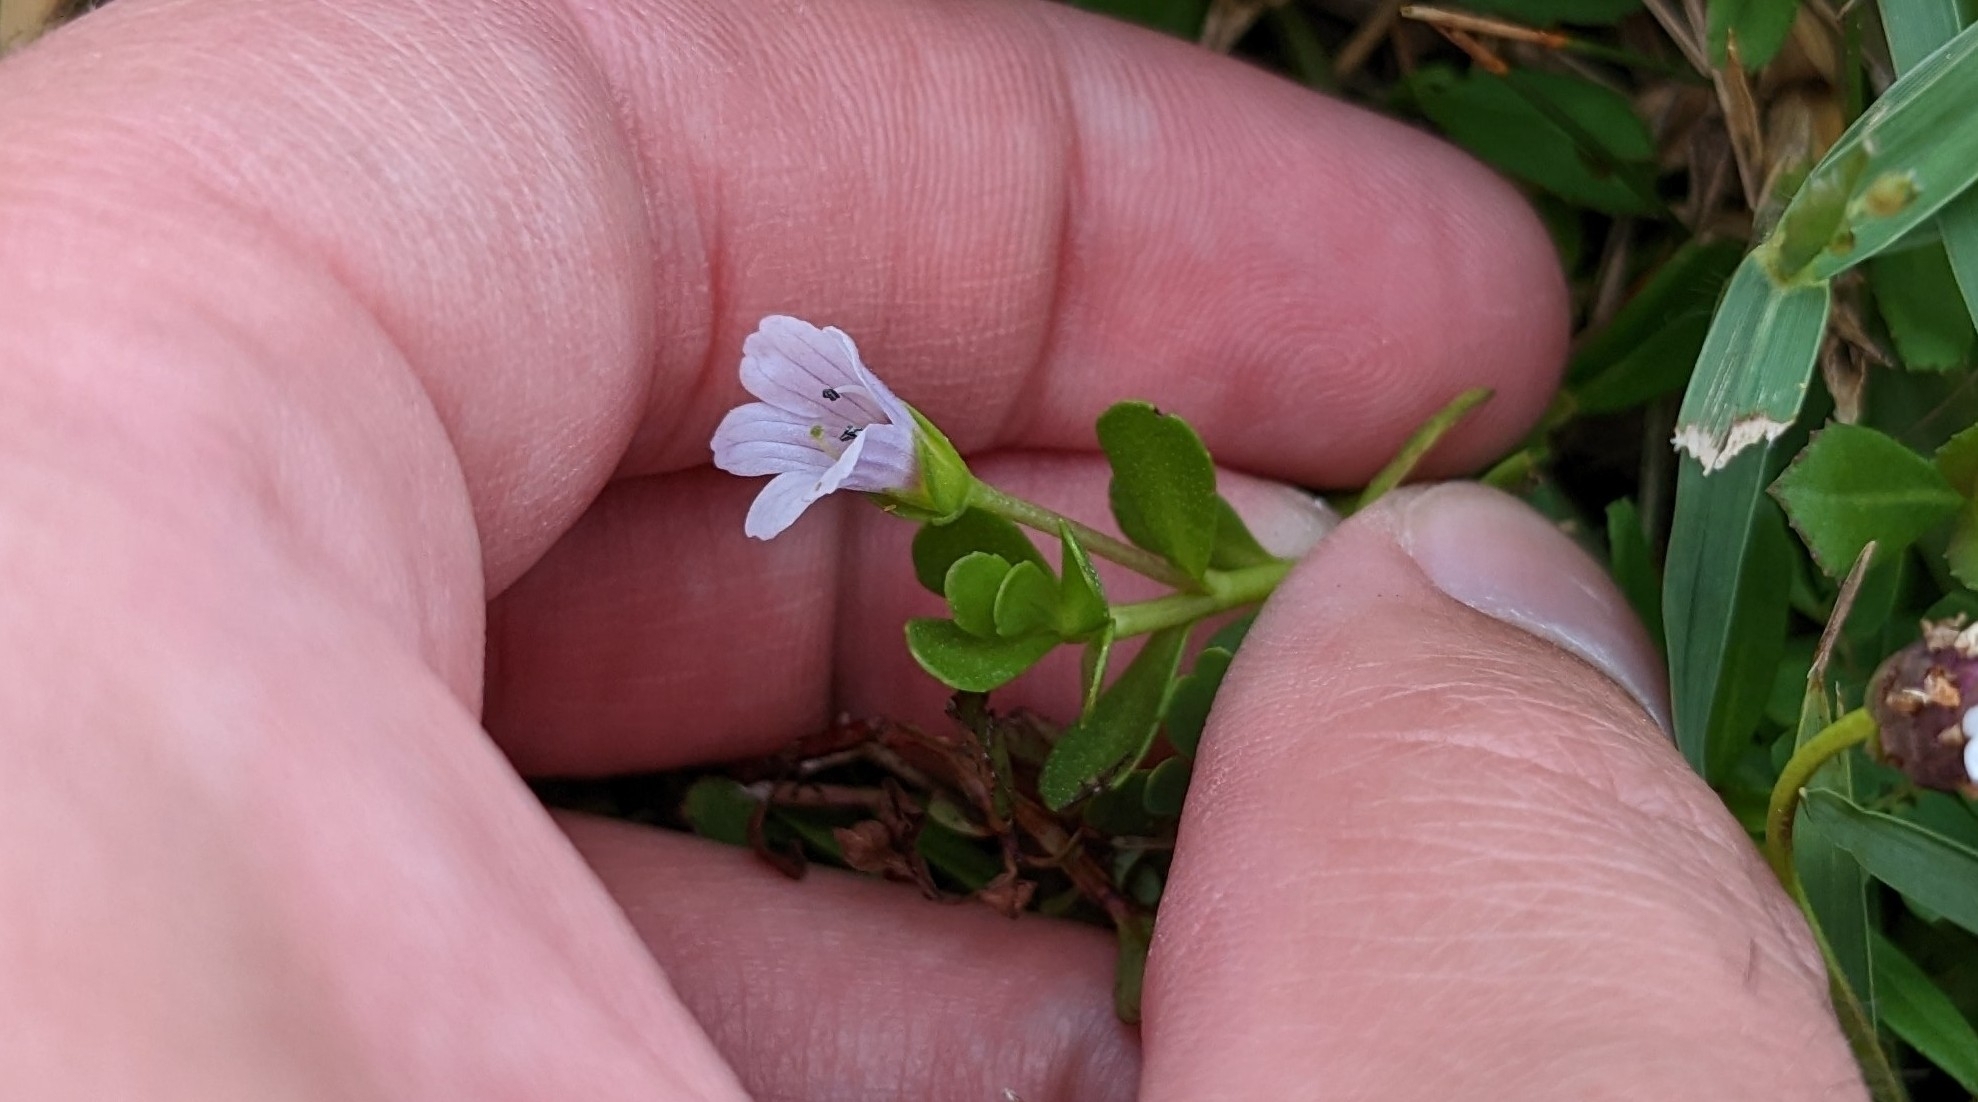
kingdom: Plantae
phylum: Tracheophyta
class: Magnoliopsida
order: Lamiales
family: Plantaginaceae
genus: Bacopa
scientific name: Bacopa monnieri
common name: Indian-pennywort
